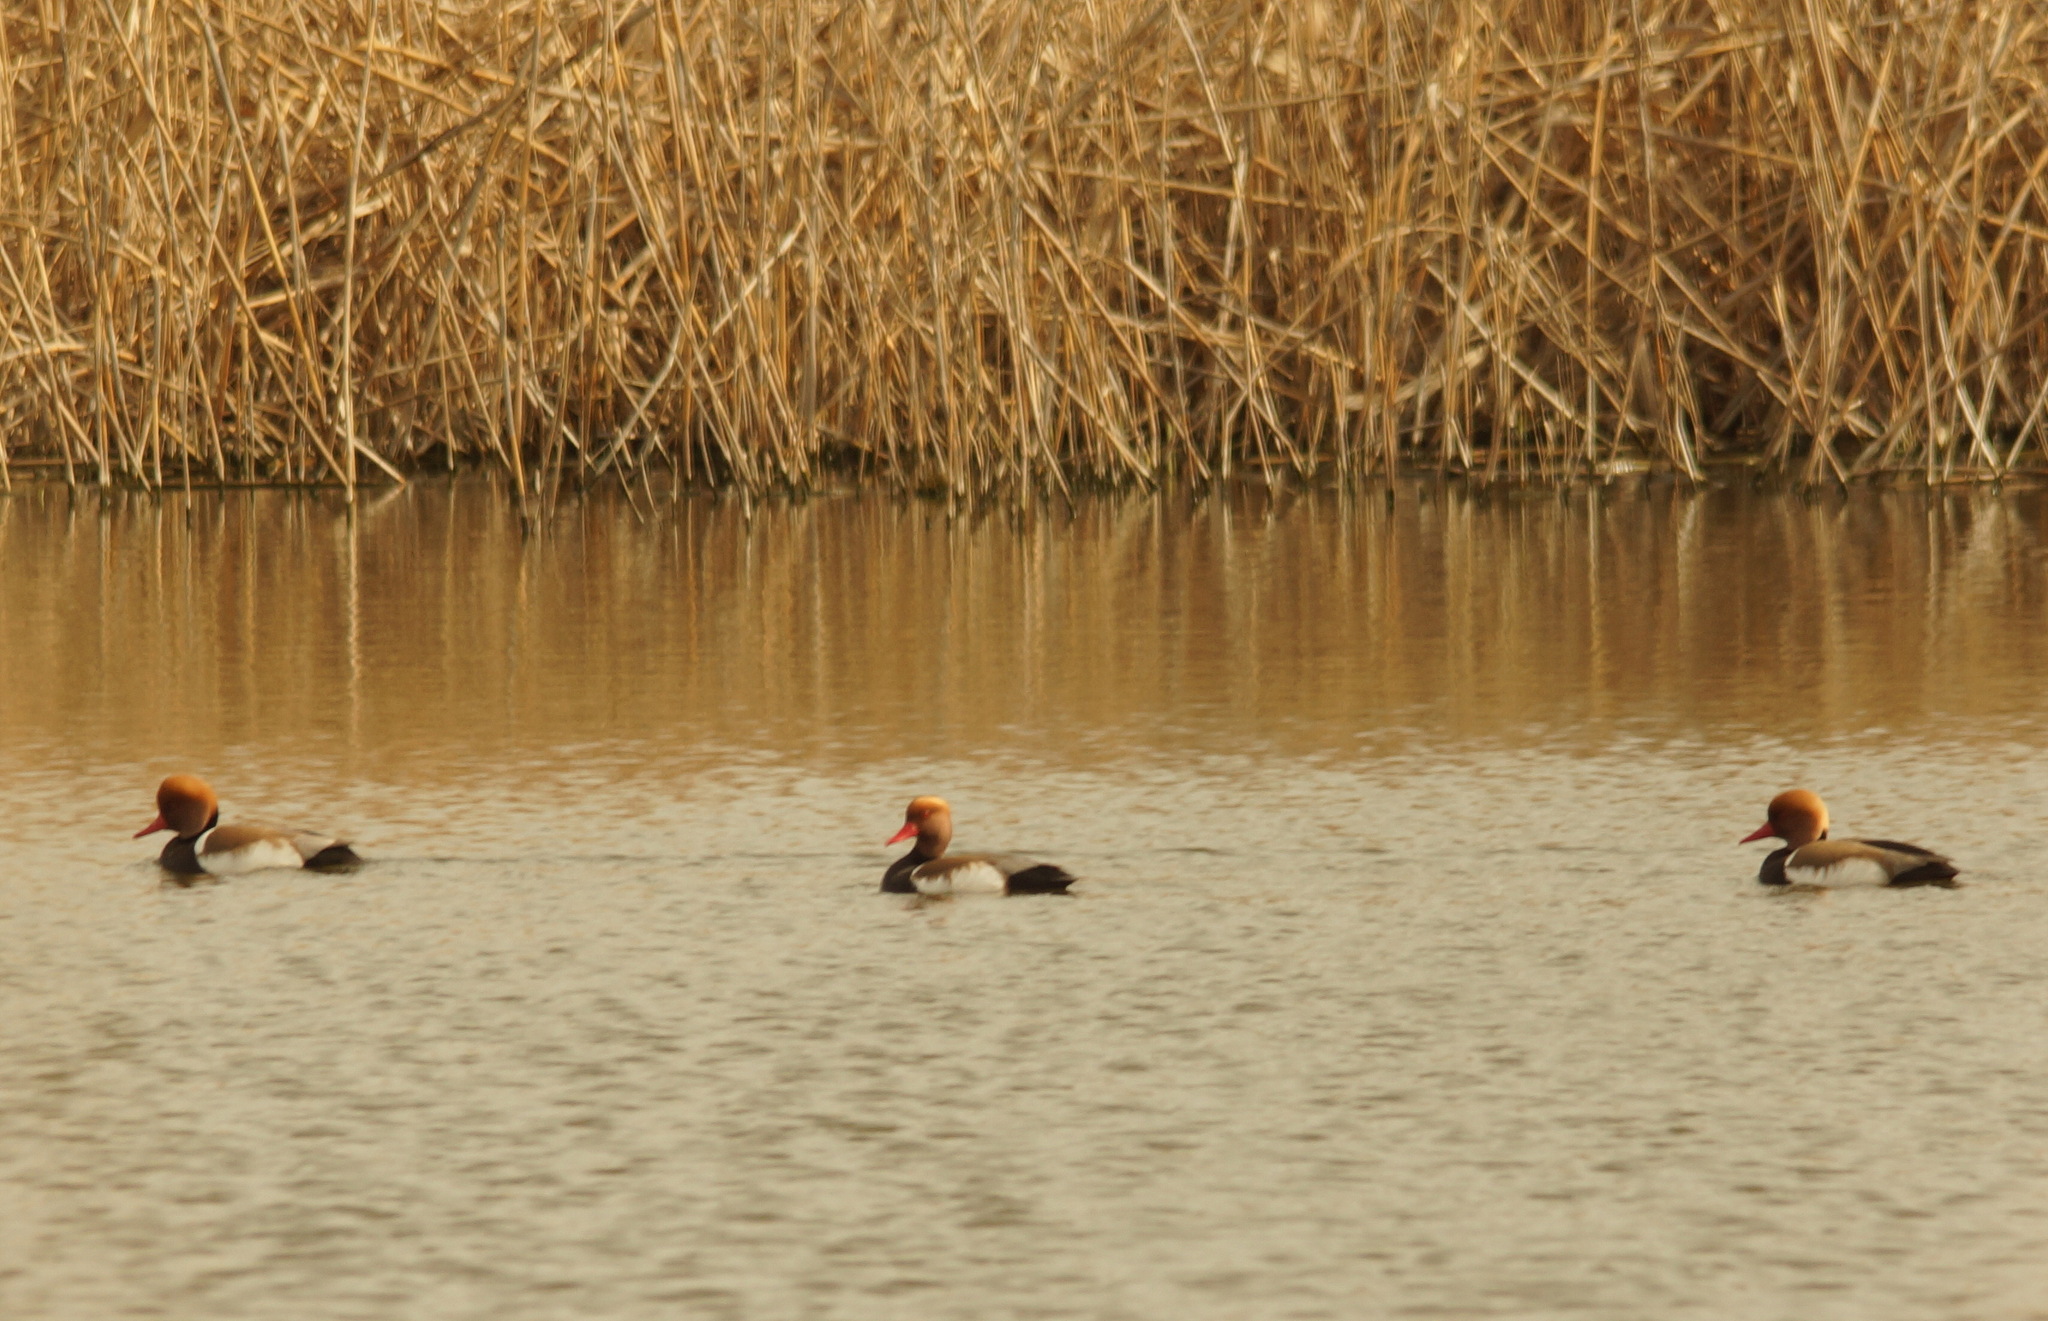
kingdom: Animalia
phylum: Chordata
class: Aves
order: Anseriformes
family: Anatidae
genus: Netta
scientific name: Netta rufina
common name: Red-crested pochard
